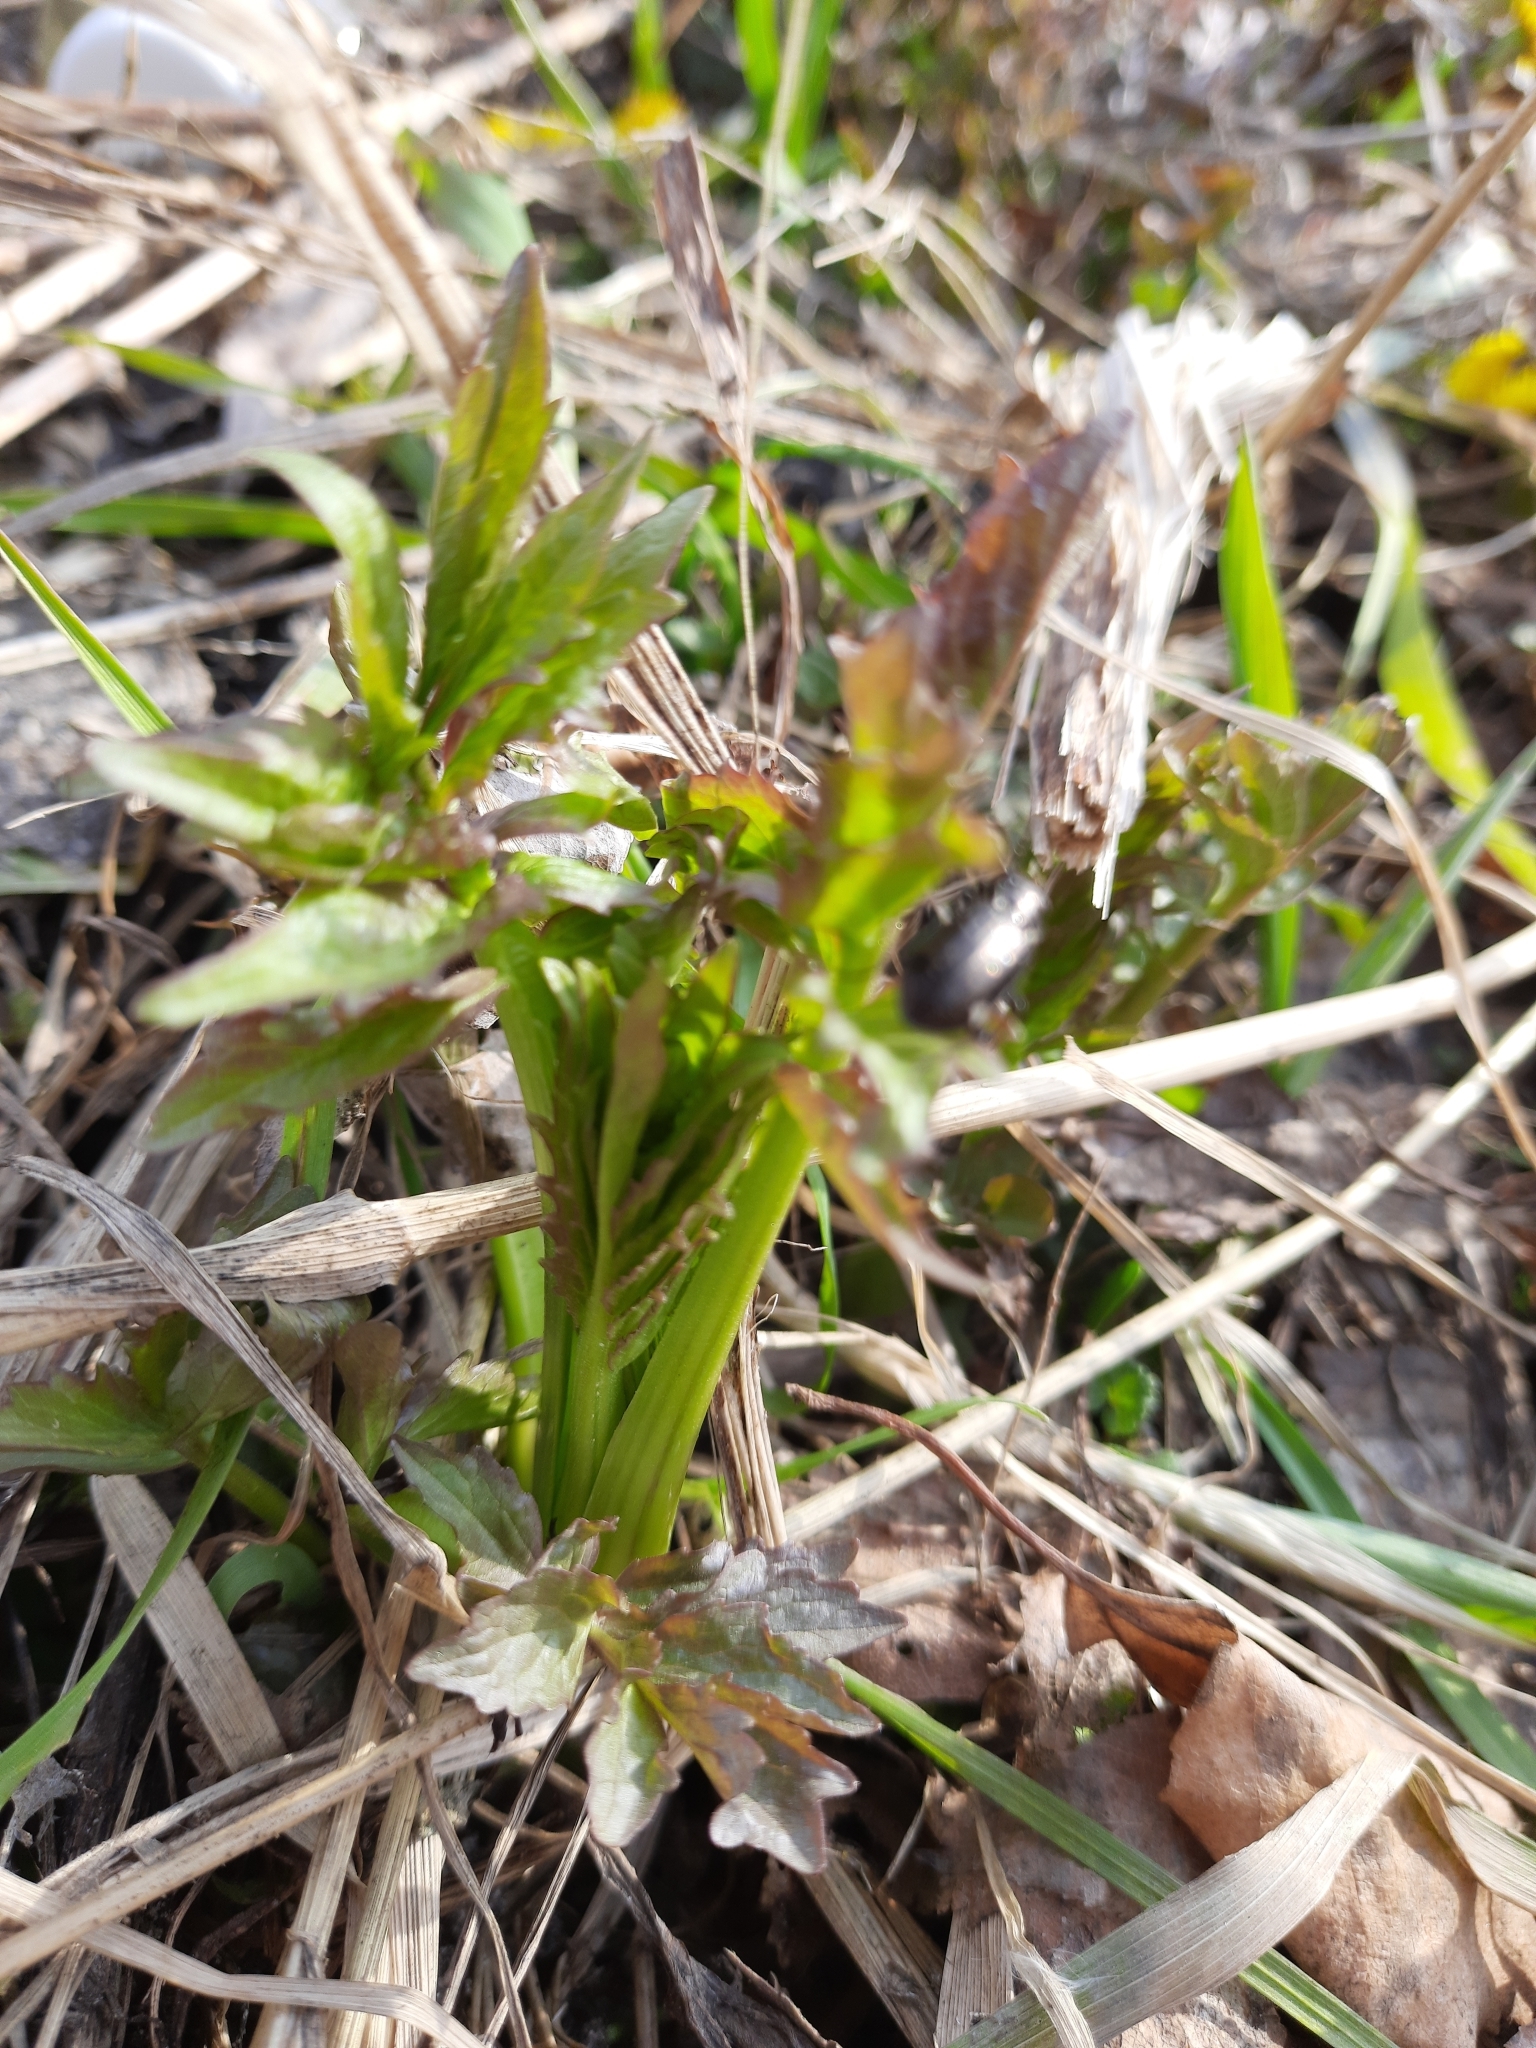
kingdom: Plantae
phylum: Tracheophyta
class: Magnoliopsida
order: Dipsacales
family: Caprifoliaceae
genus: Valeriana
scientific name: Valeriana wolgensis
